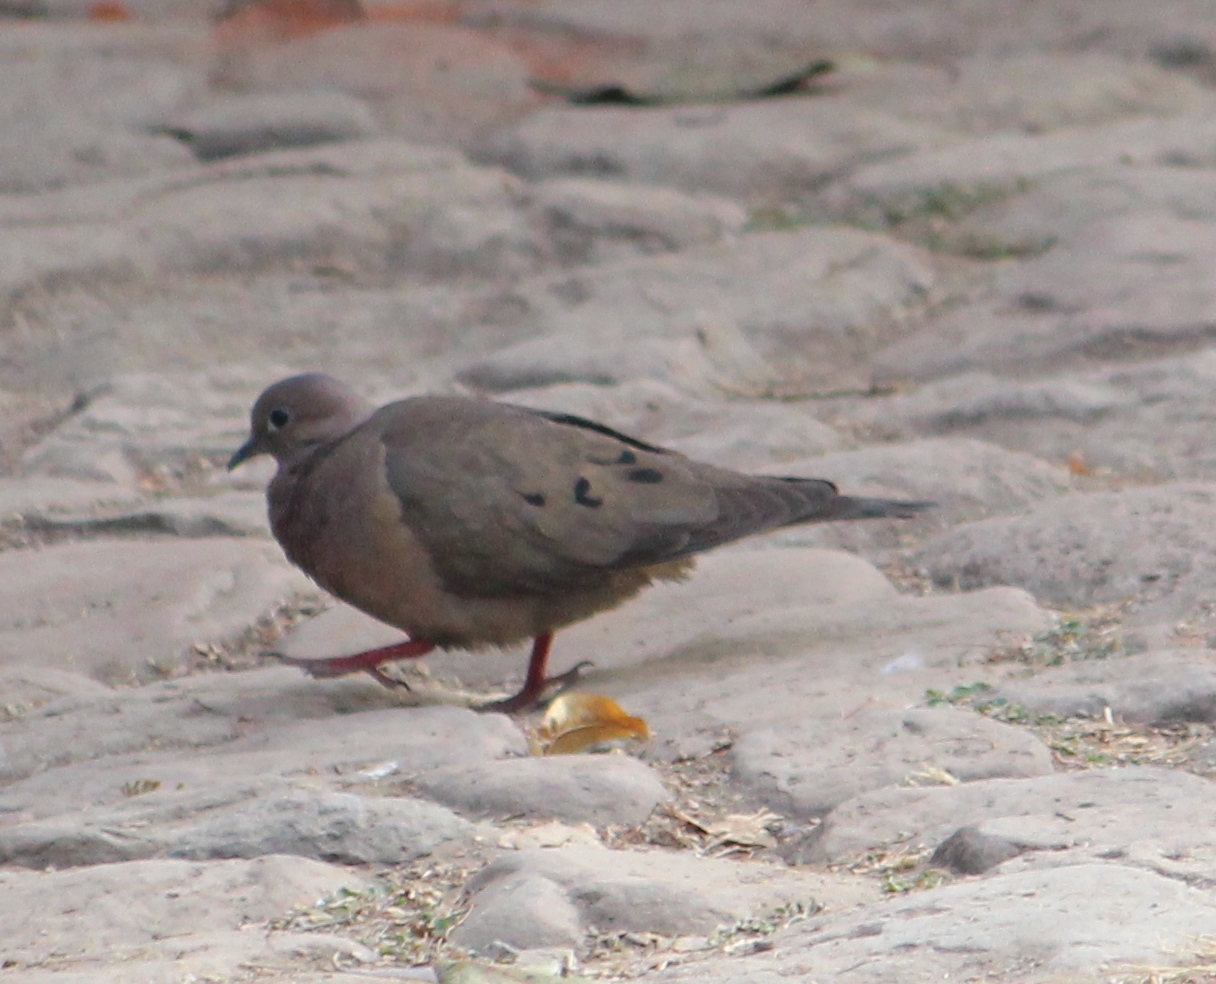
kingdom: Animalia
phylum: Chordata
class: Aves
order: Columbiformes
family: Columbidae
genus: Zenaida
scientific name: Zenaida auriculata
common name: Eared dove
